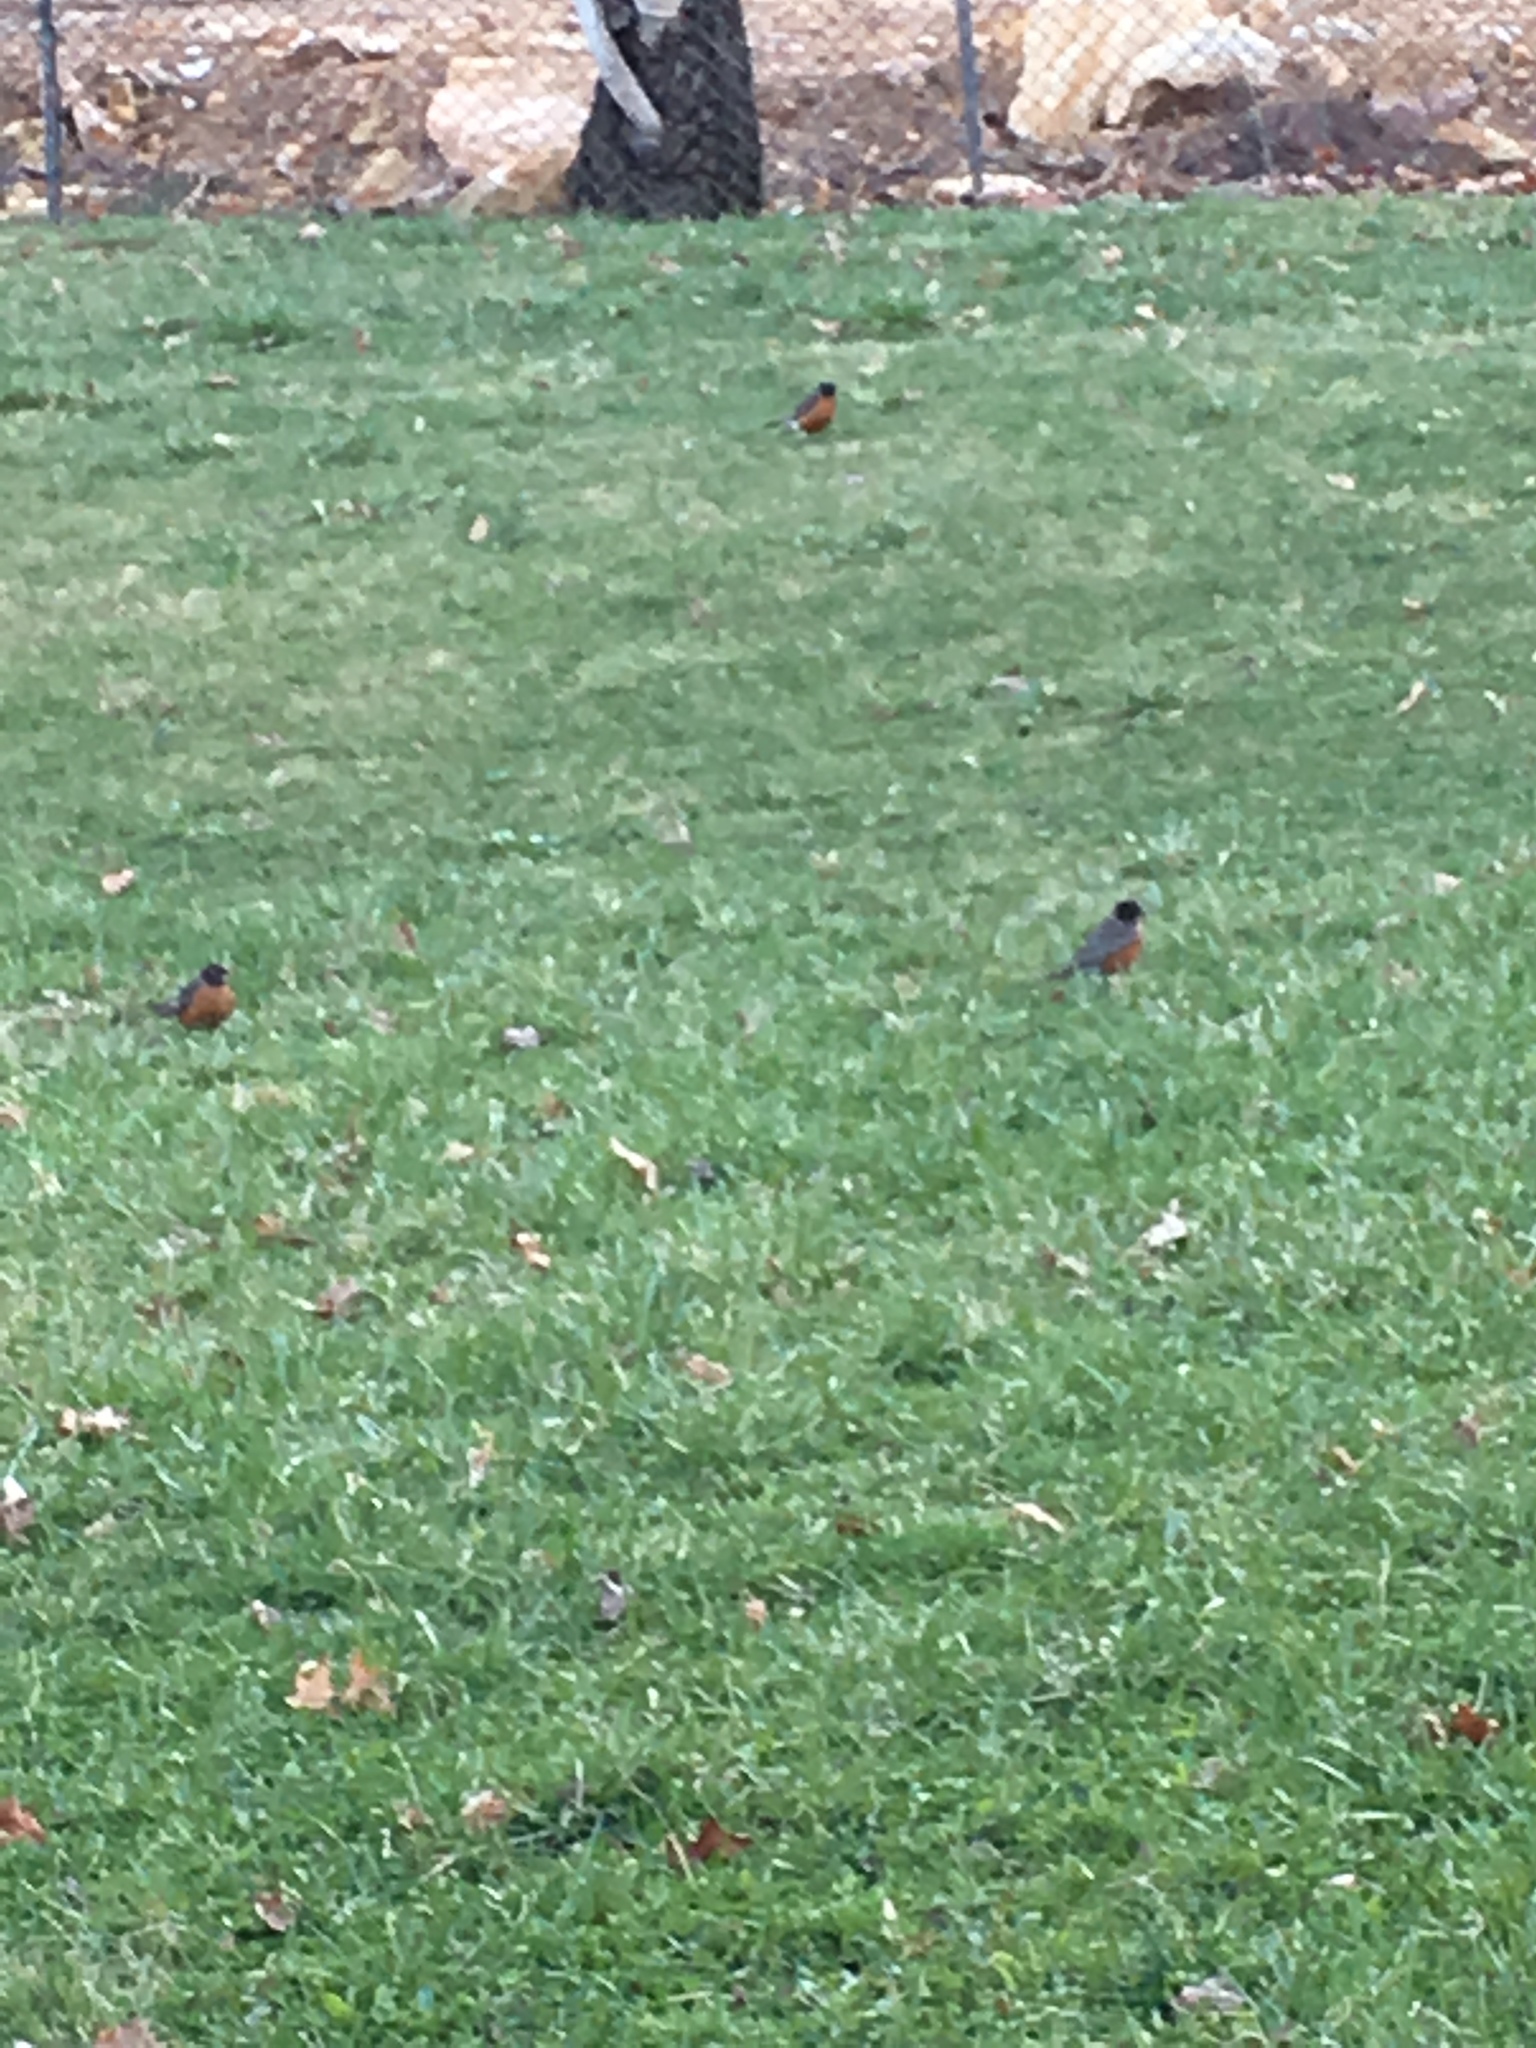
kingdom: Animalia
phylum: Chordata
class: Aves
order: Passeriformes
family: Turdidae
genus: Turdus
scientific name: Turdus migratorius
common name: American robin
